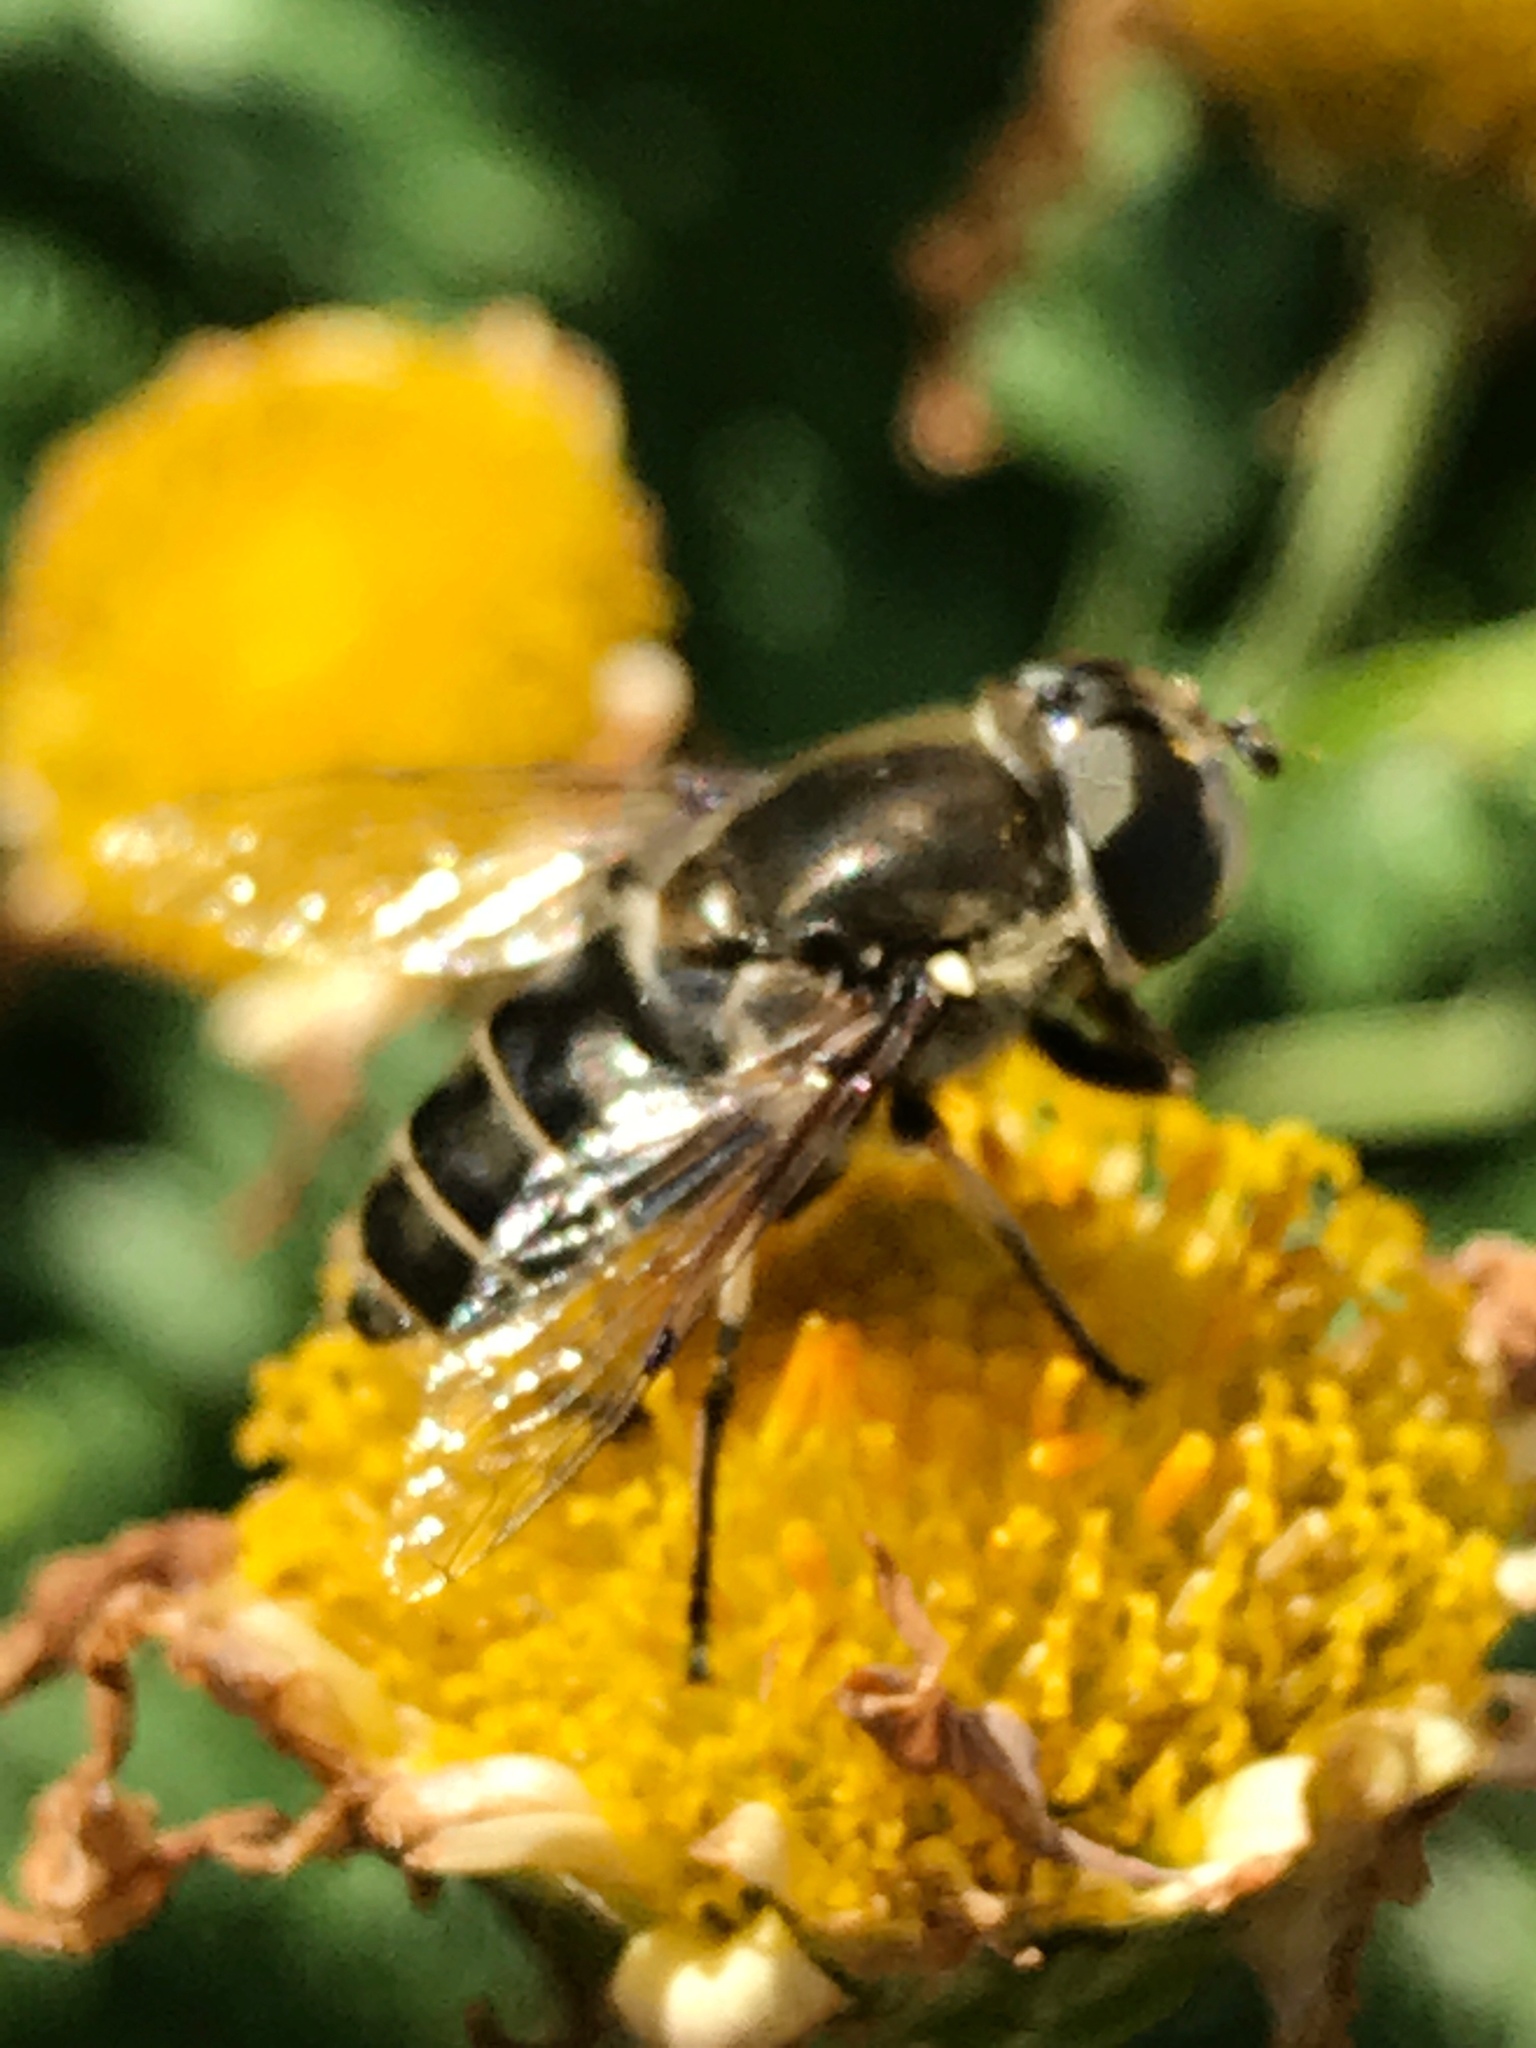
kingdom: Animalia
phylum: Arthropoda
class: Insecta
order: Diptera
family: Syrphidae
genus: Eristalis
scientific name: Eristalis dimidiata
